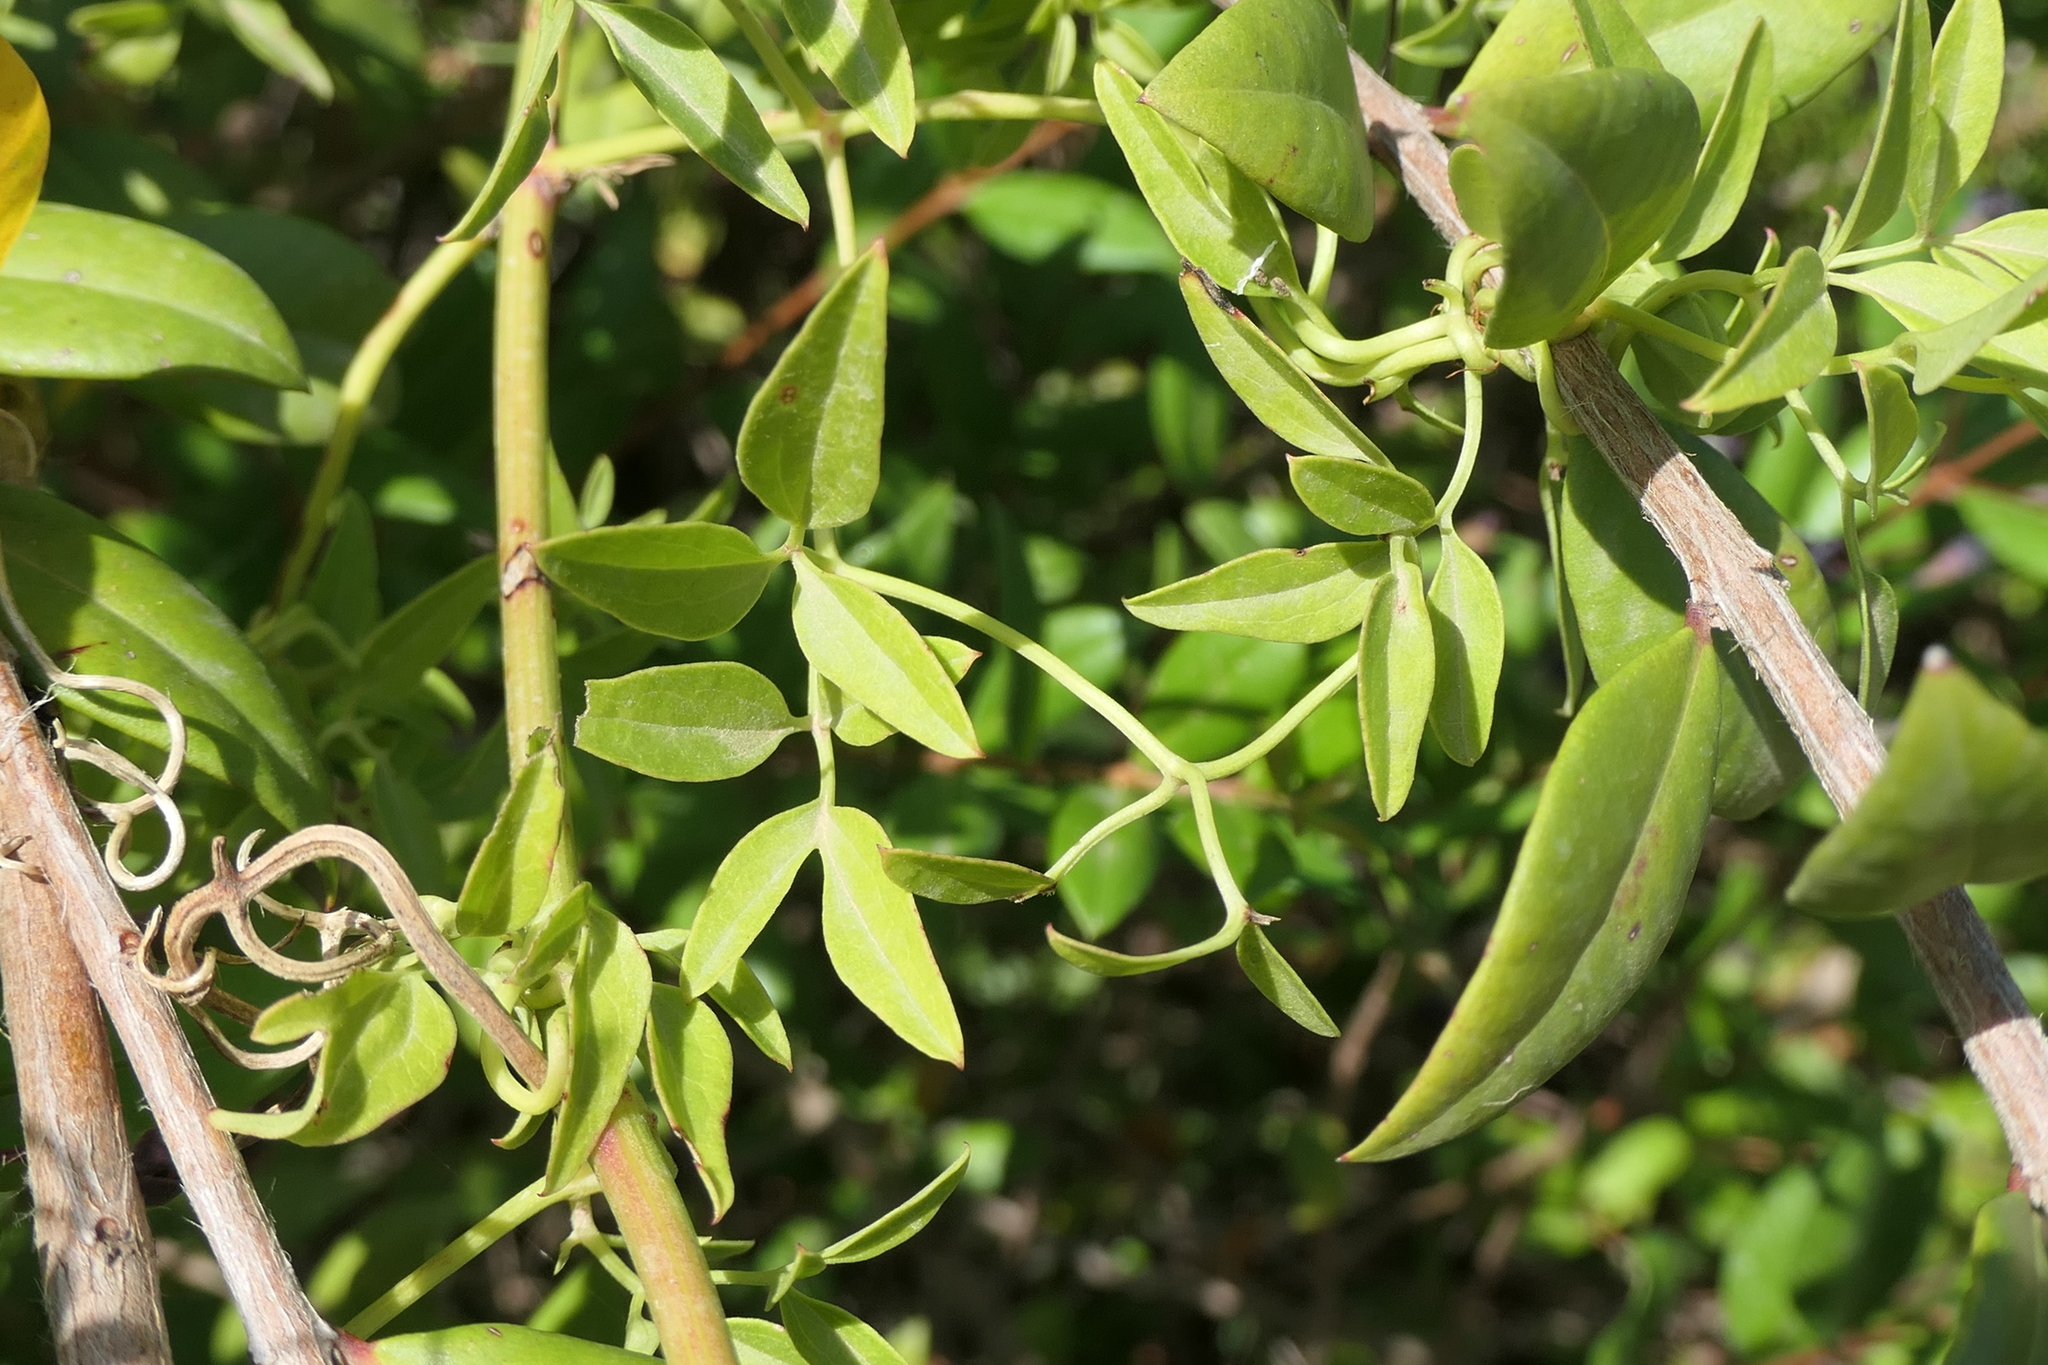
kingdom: Plantae
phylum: Tracheophyta
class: Magnoliopsida
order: Ranunculales
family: Ranunculaceae
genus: Clematis
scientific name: Clematis flammula
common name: Virgin's-bower
